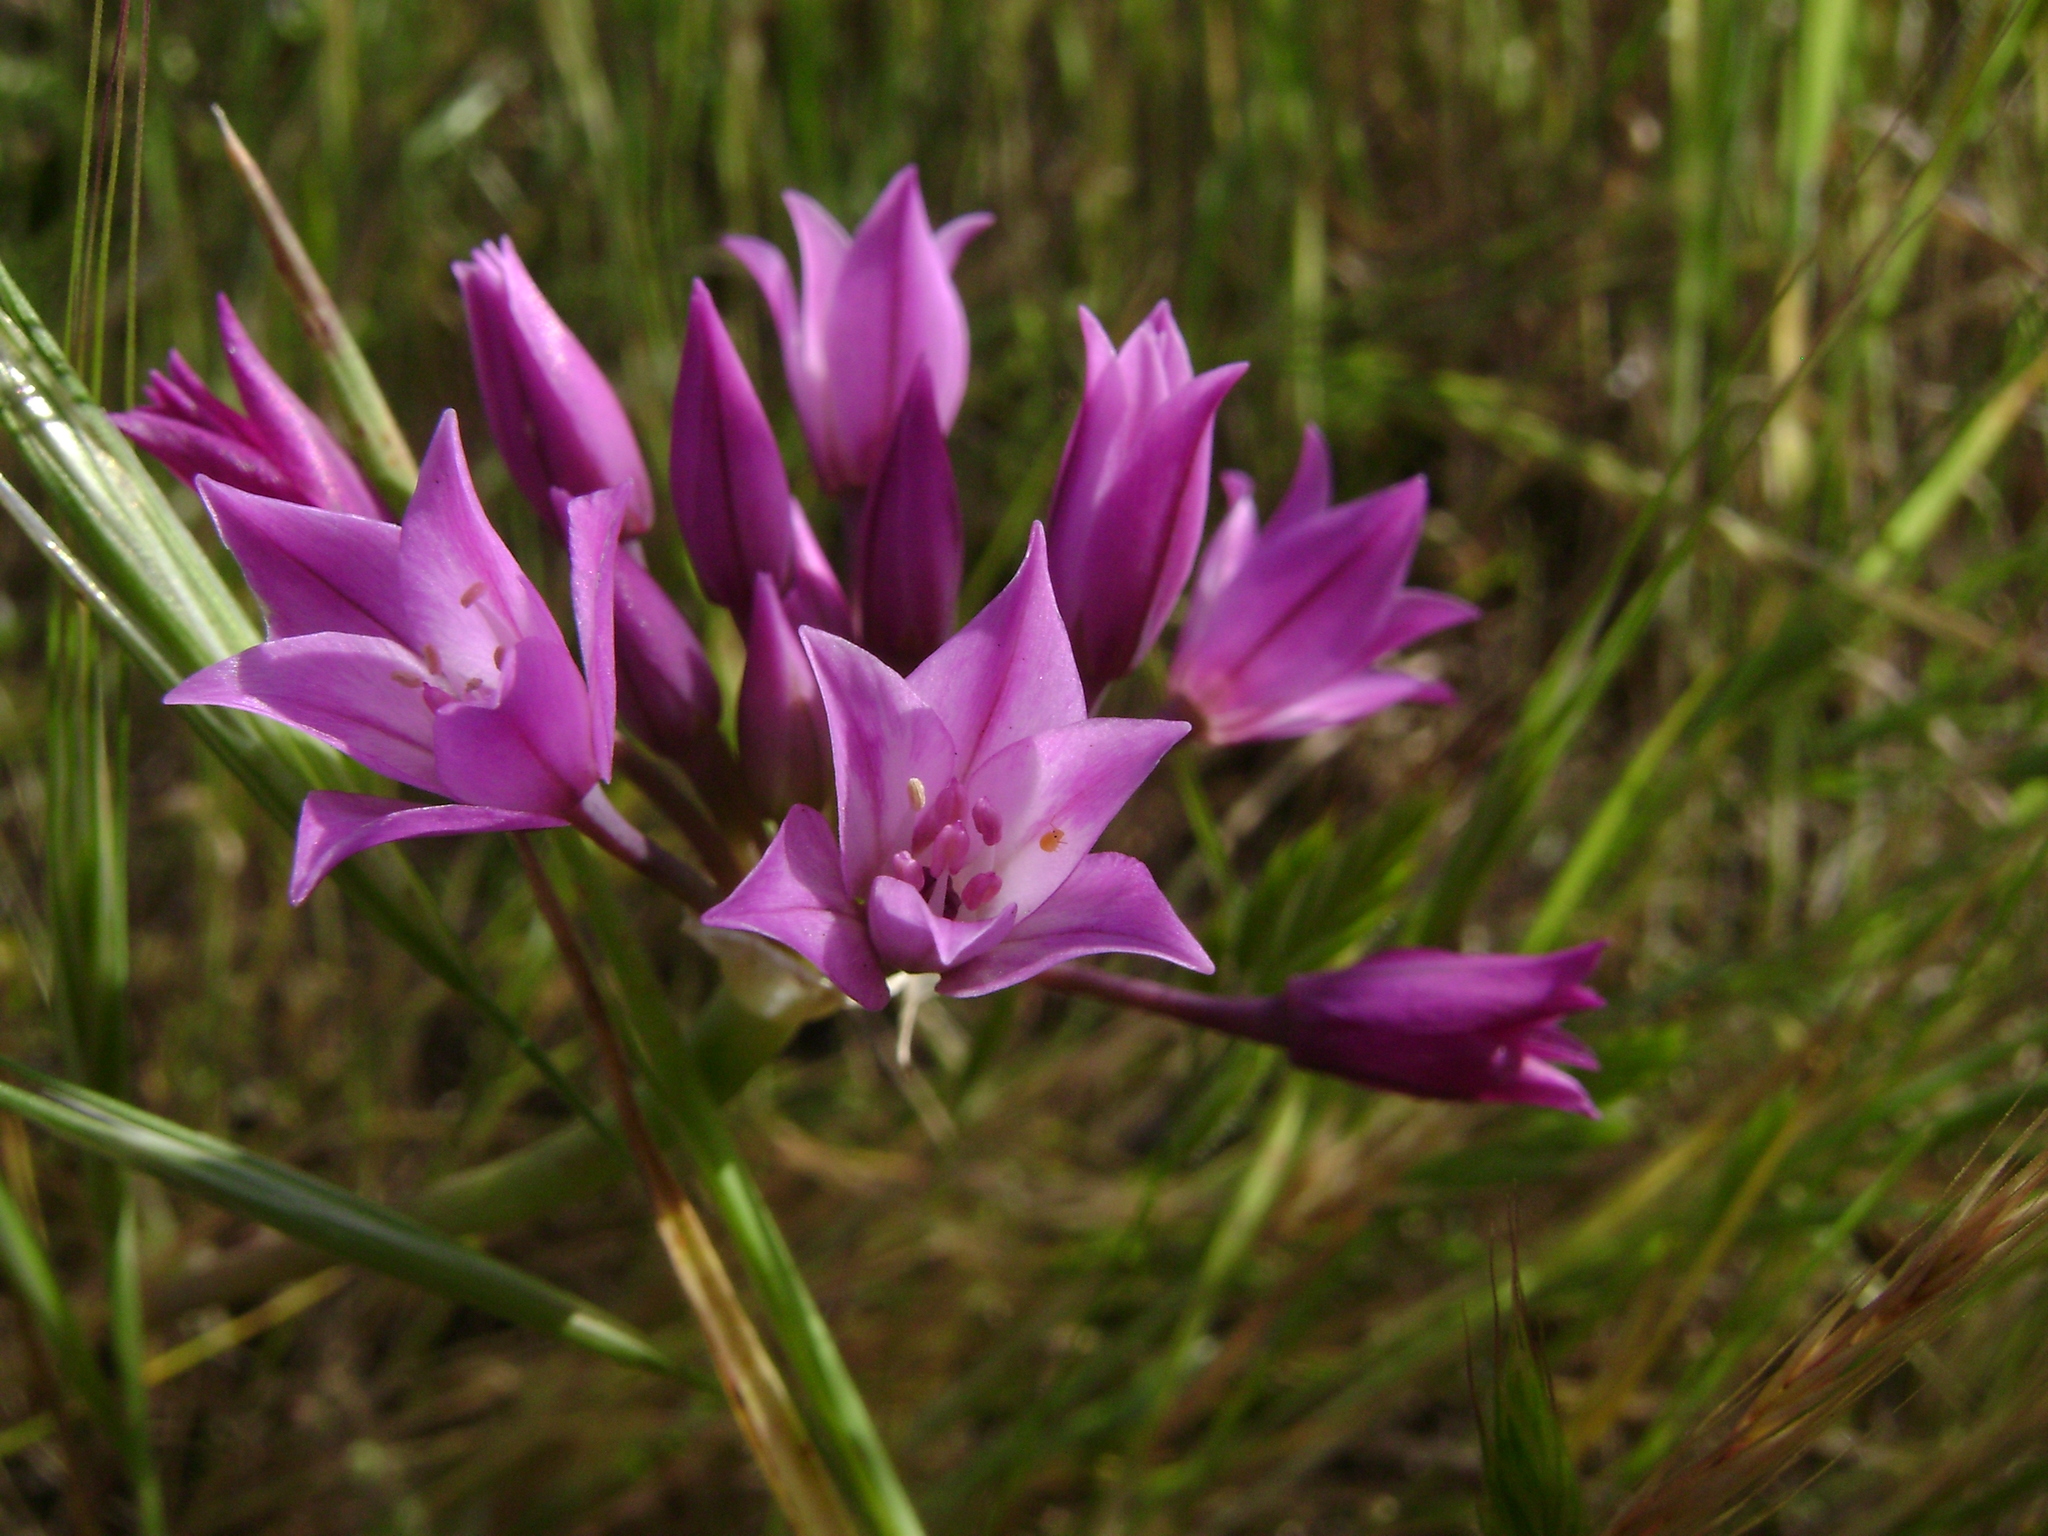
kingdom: Plantae
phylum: Tracheophyta
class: Liliopsida
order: Asparagales
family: Amaryllidaceae
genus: Allium
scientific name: Allium peninsulare
